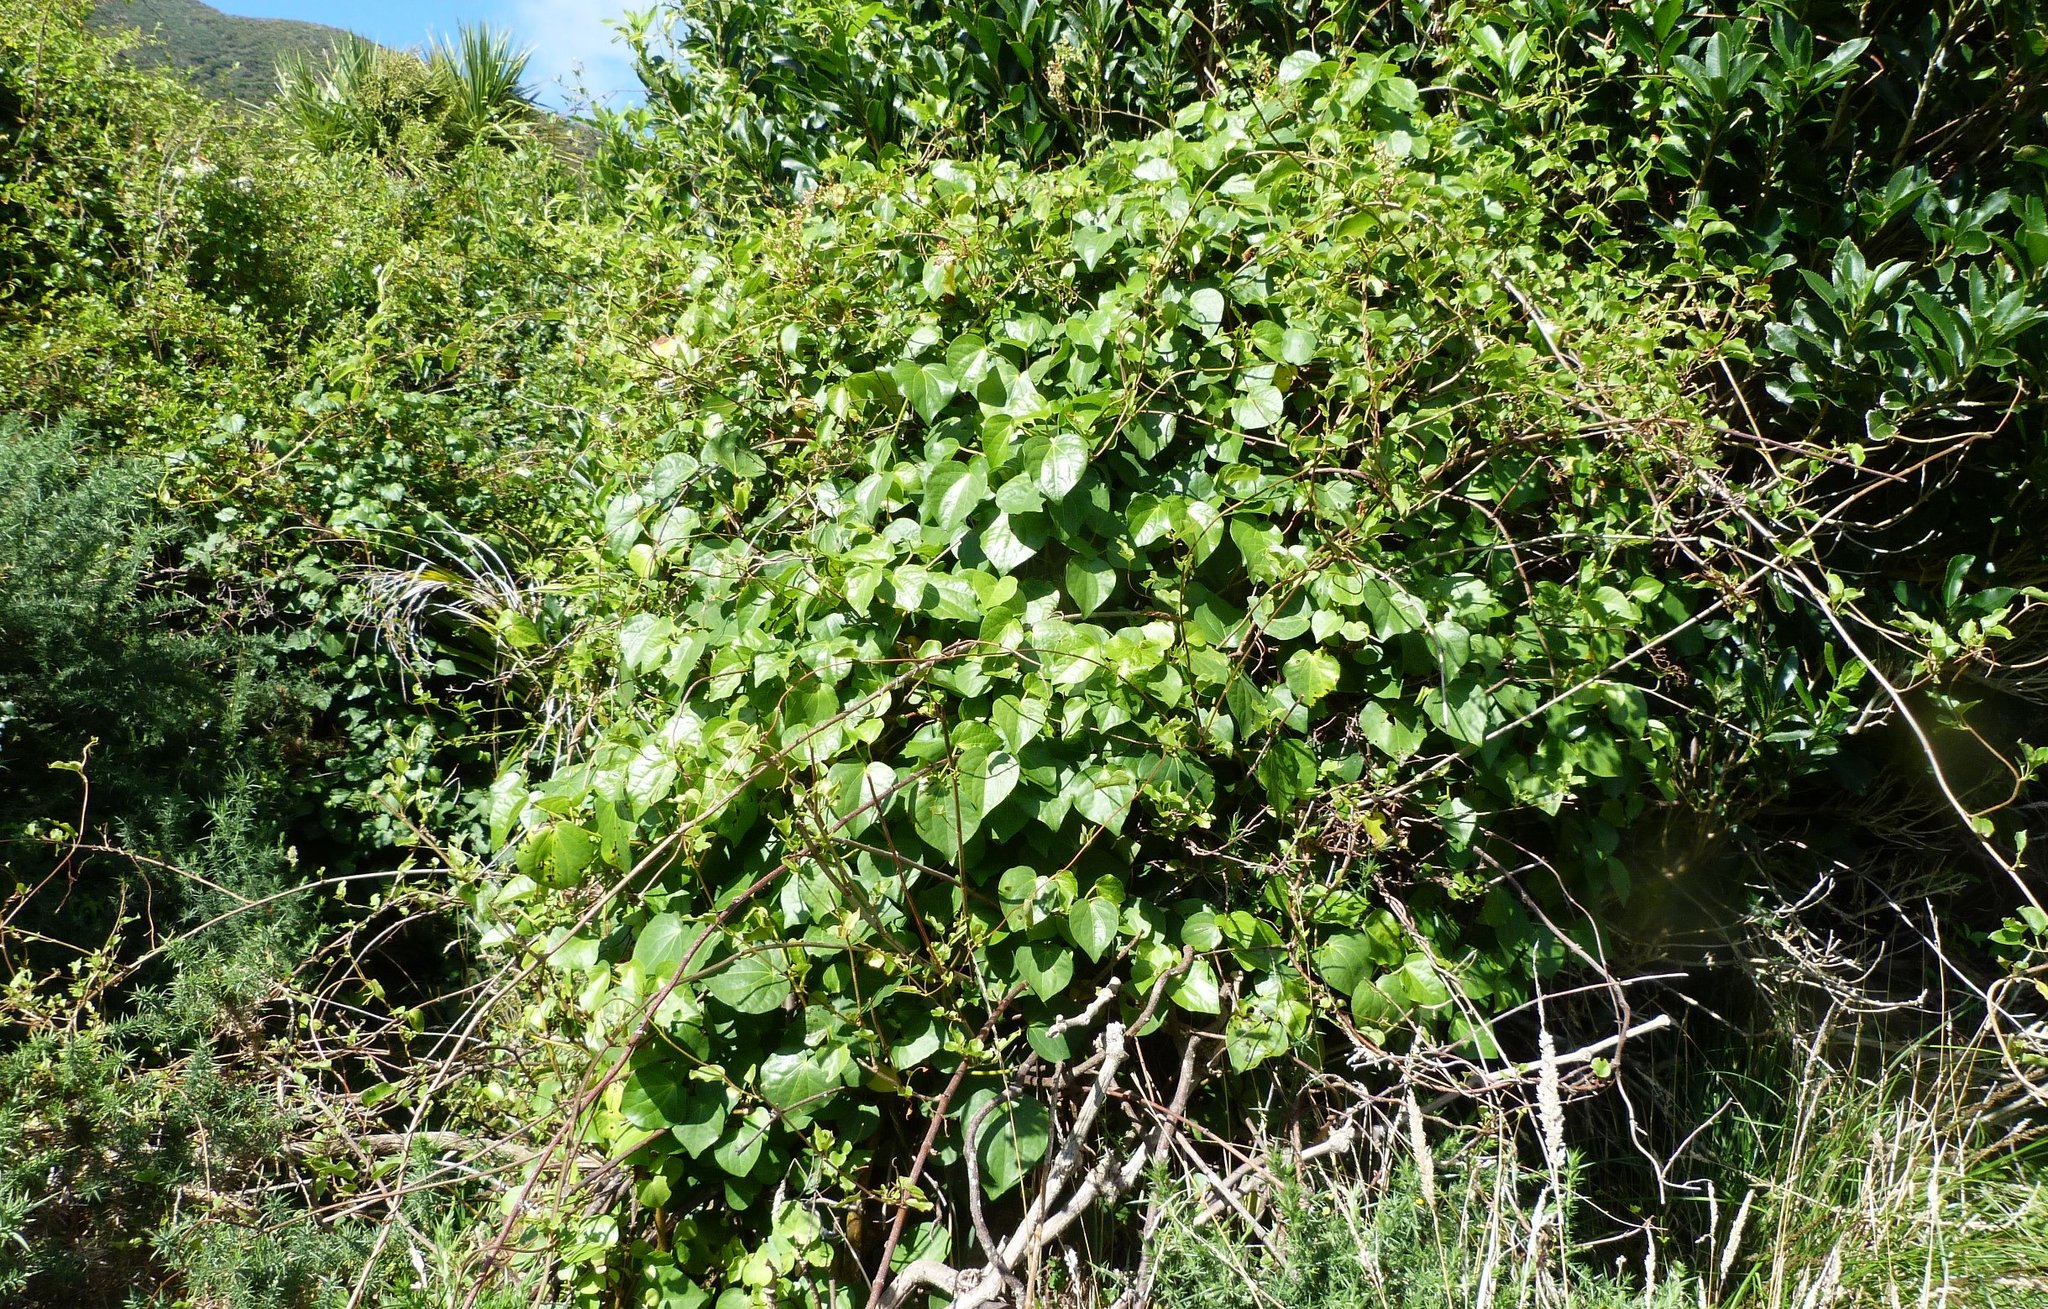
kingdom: Plantae
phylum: Tracheophyta
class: Magnoliopsida
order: Caryophyllales
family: Polygonaceae
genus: Muehlenbeckia
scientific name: Muehlenbeckia australis
